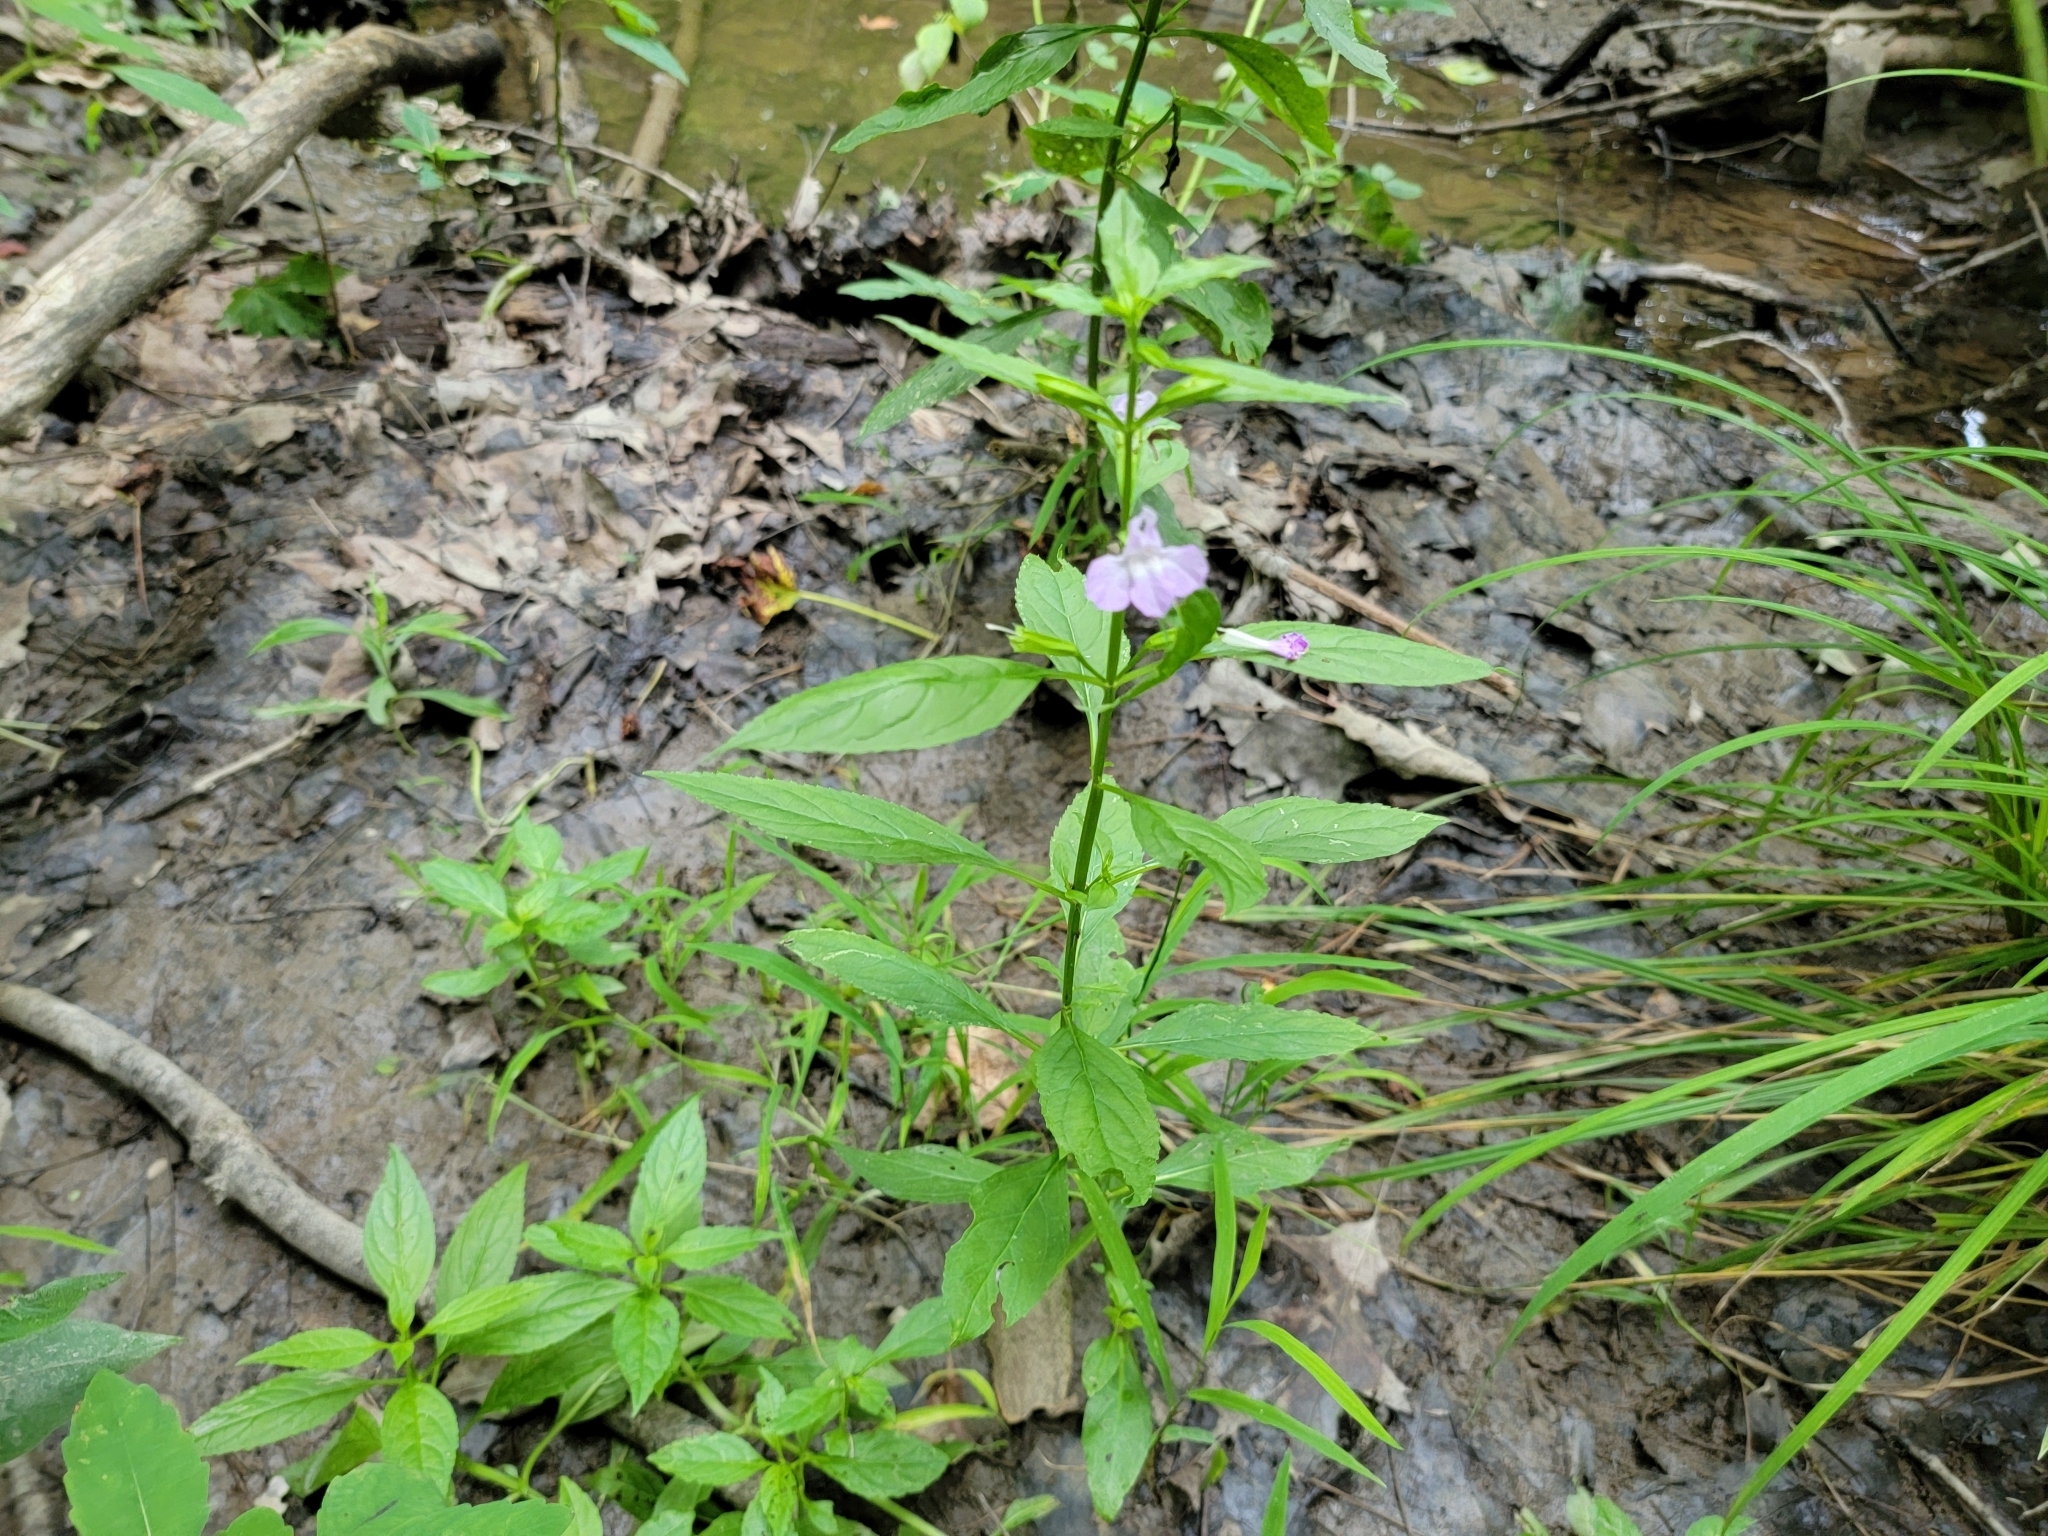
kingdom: Plantae
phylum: Tracheophyta
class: Magnoliopsida
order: Lamiales
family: Phrymaceae
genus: Mimulus
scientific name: Mimulus alatus
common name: Sharp-wing monkey-flower
